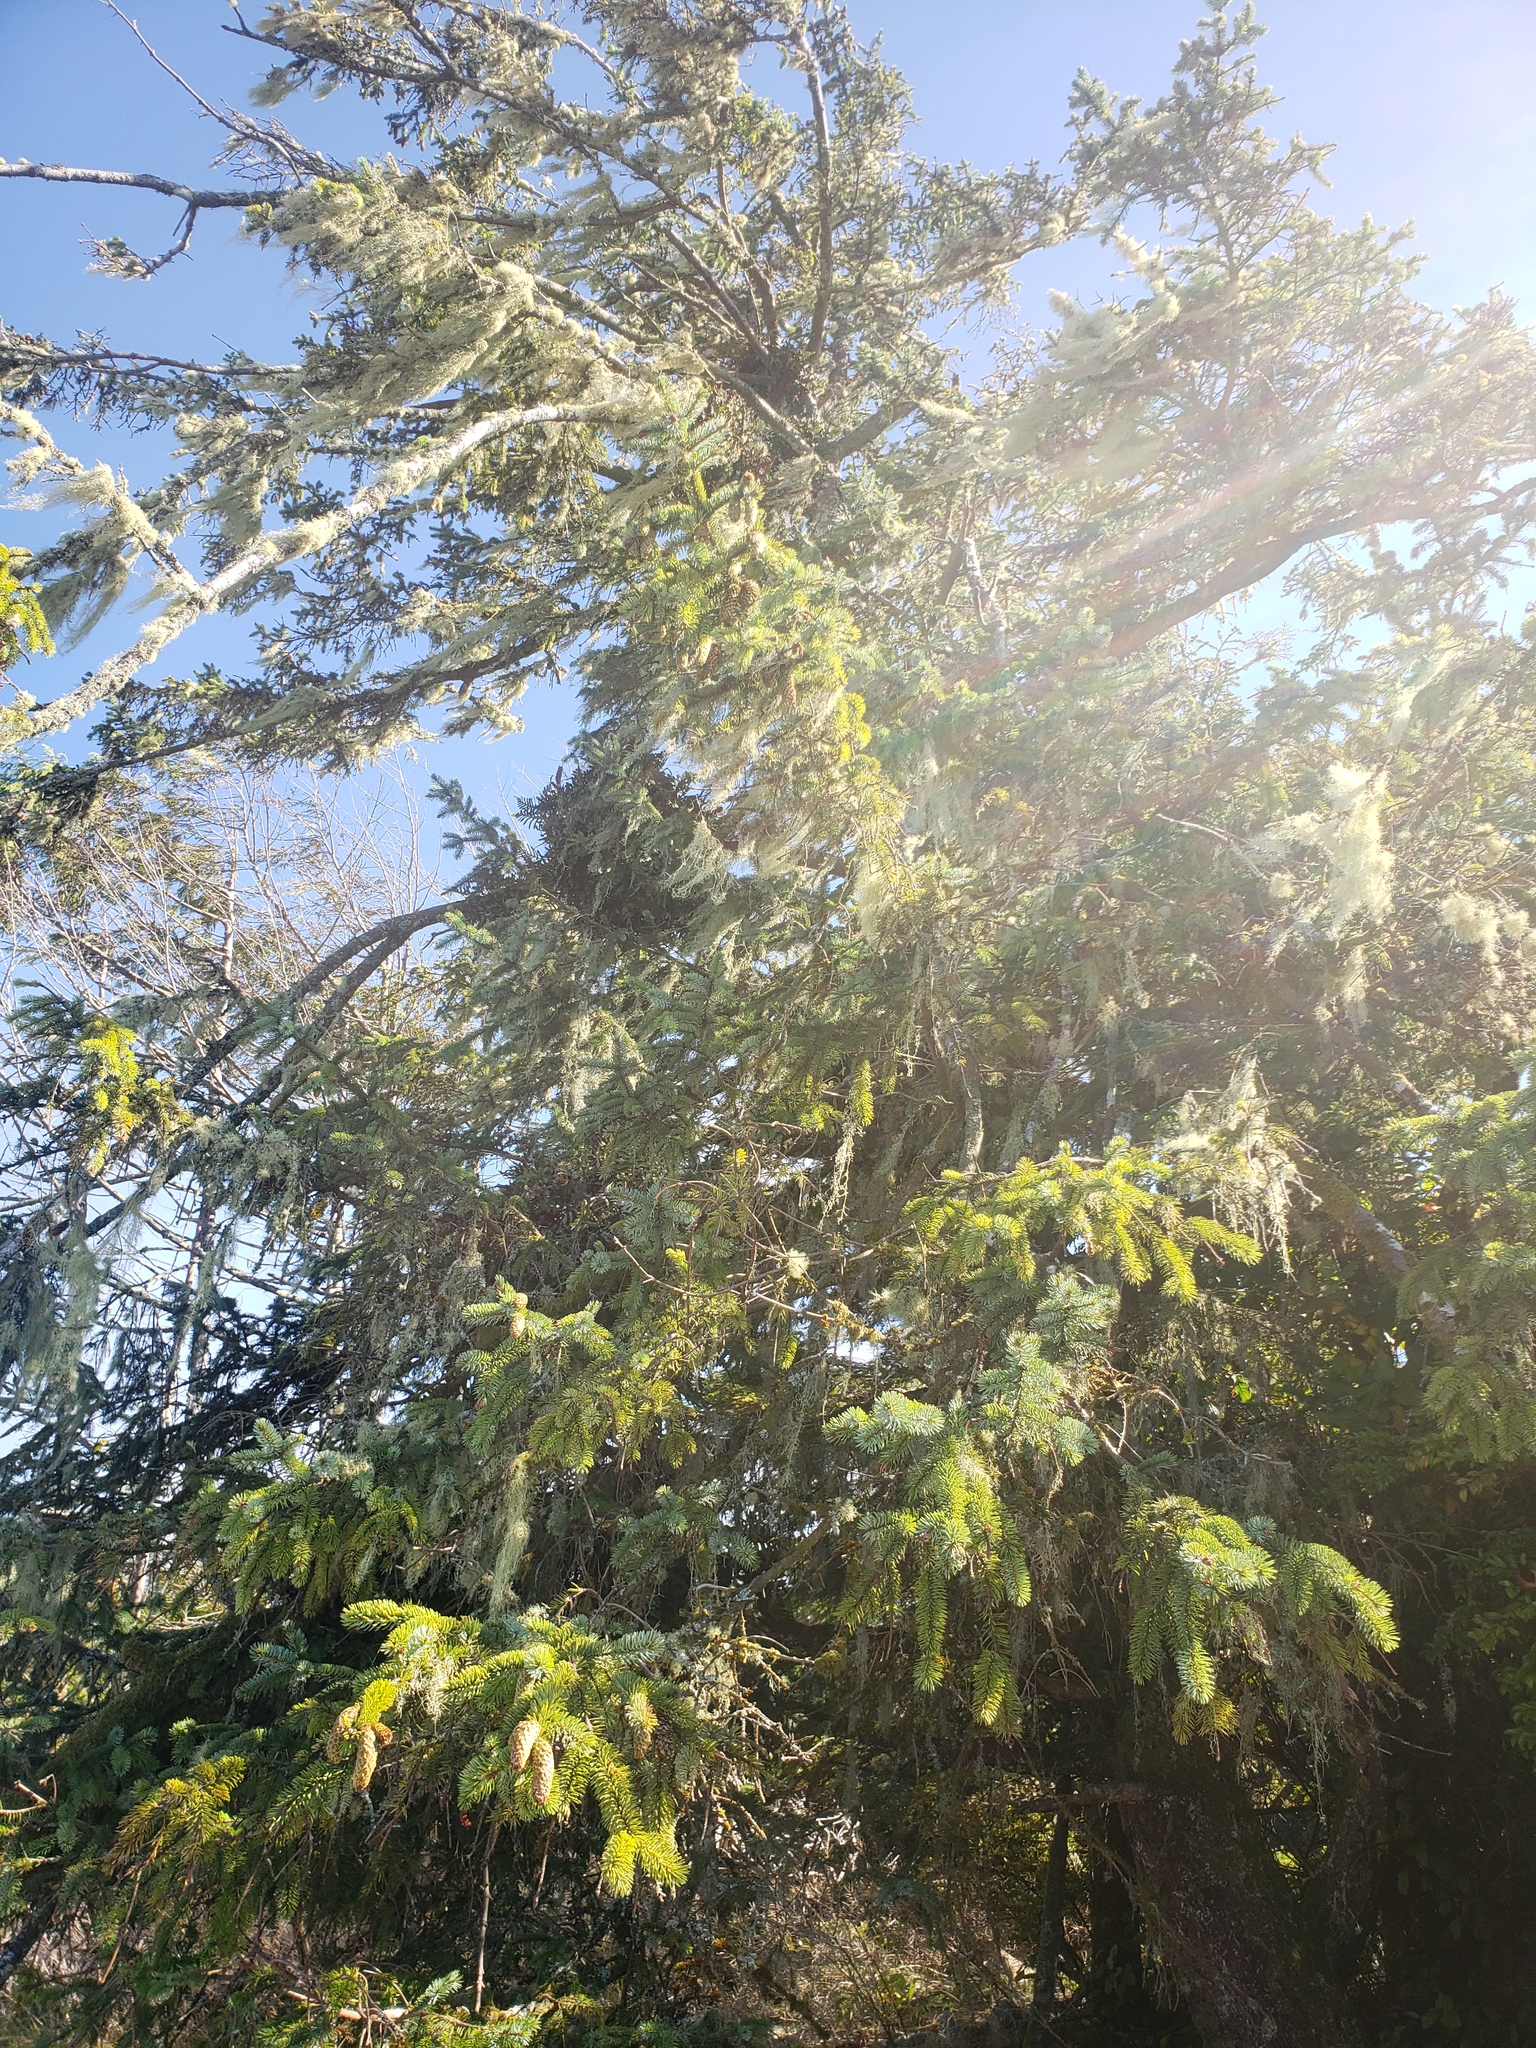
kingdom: Plantae
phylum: Tracheophyta
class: Pinopsida
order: Pinales
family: Pinaceae
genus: Picea
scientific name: Picea sitchensis
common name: Sitka spruce
